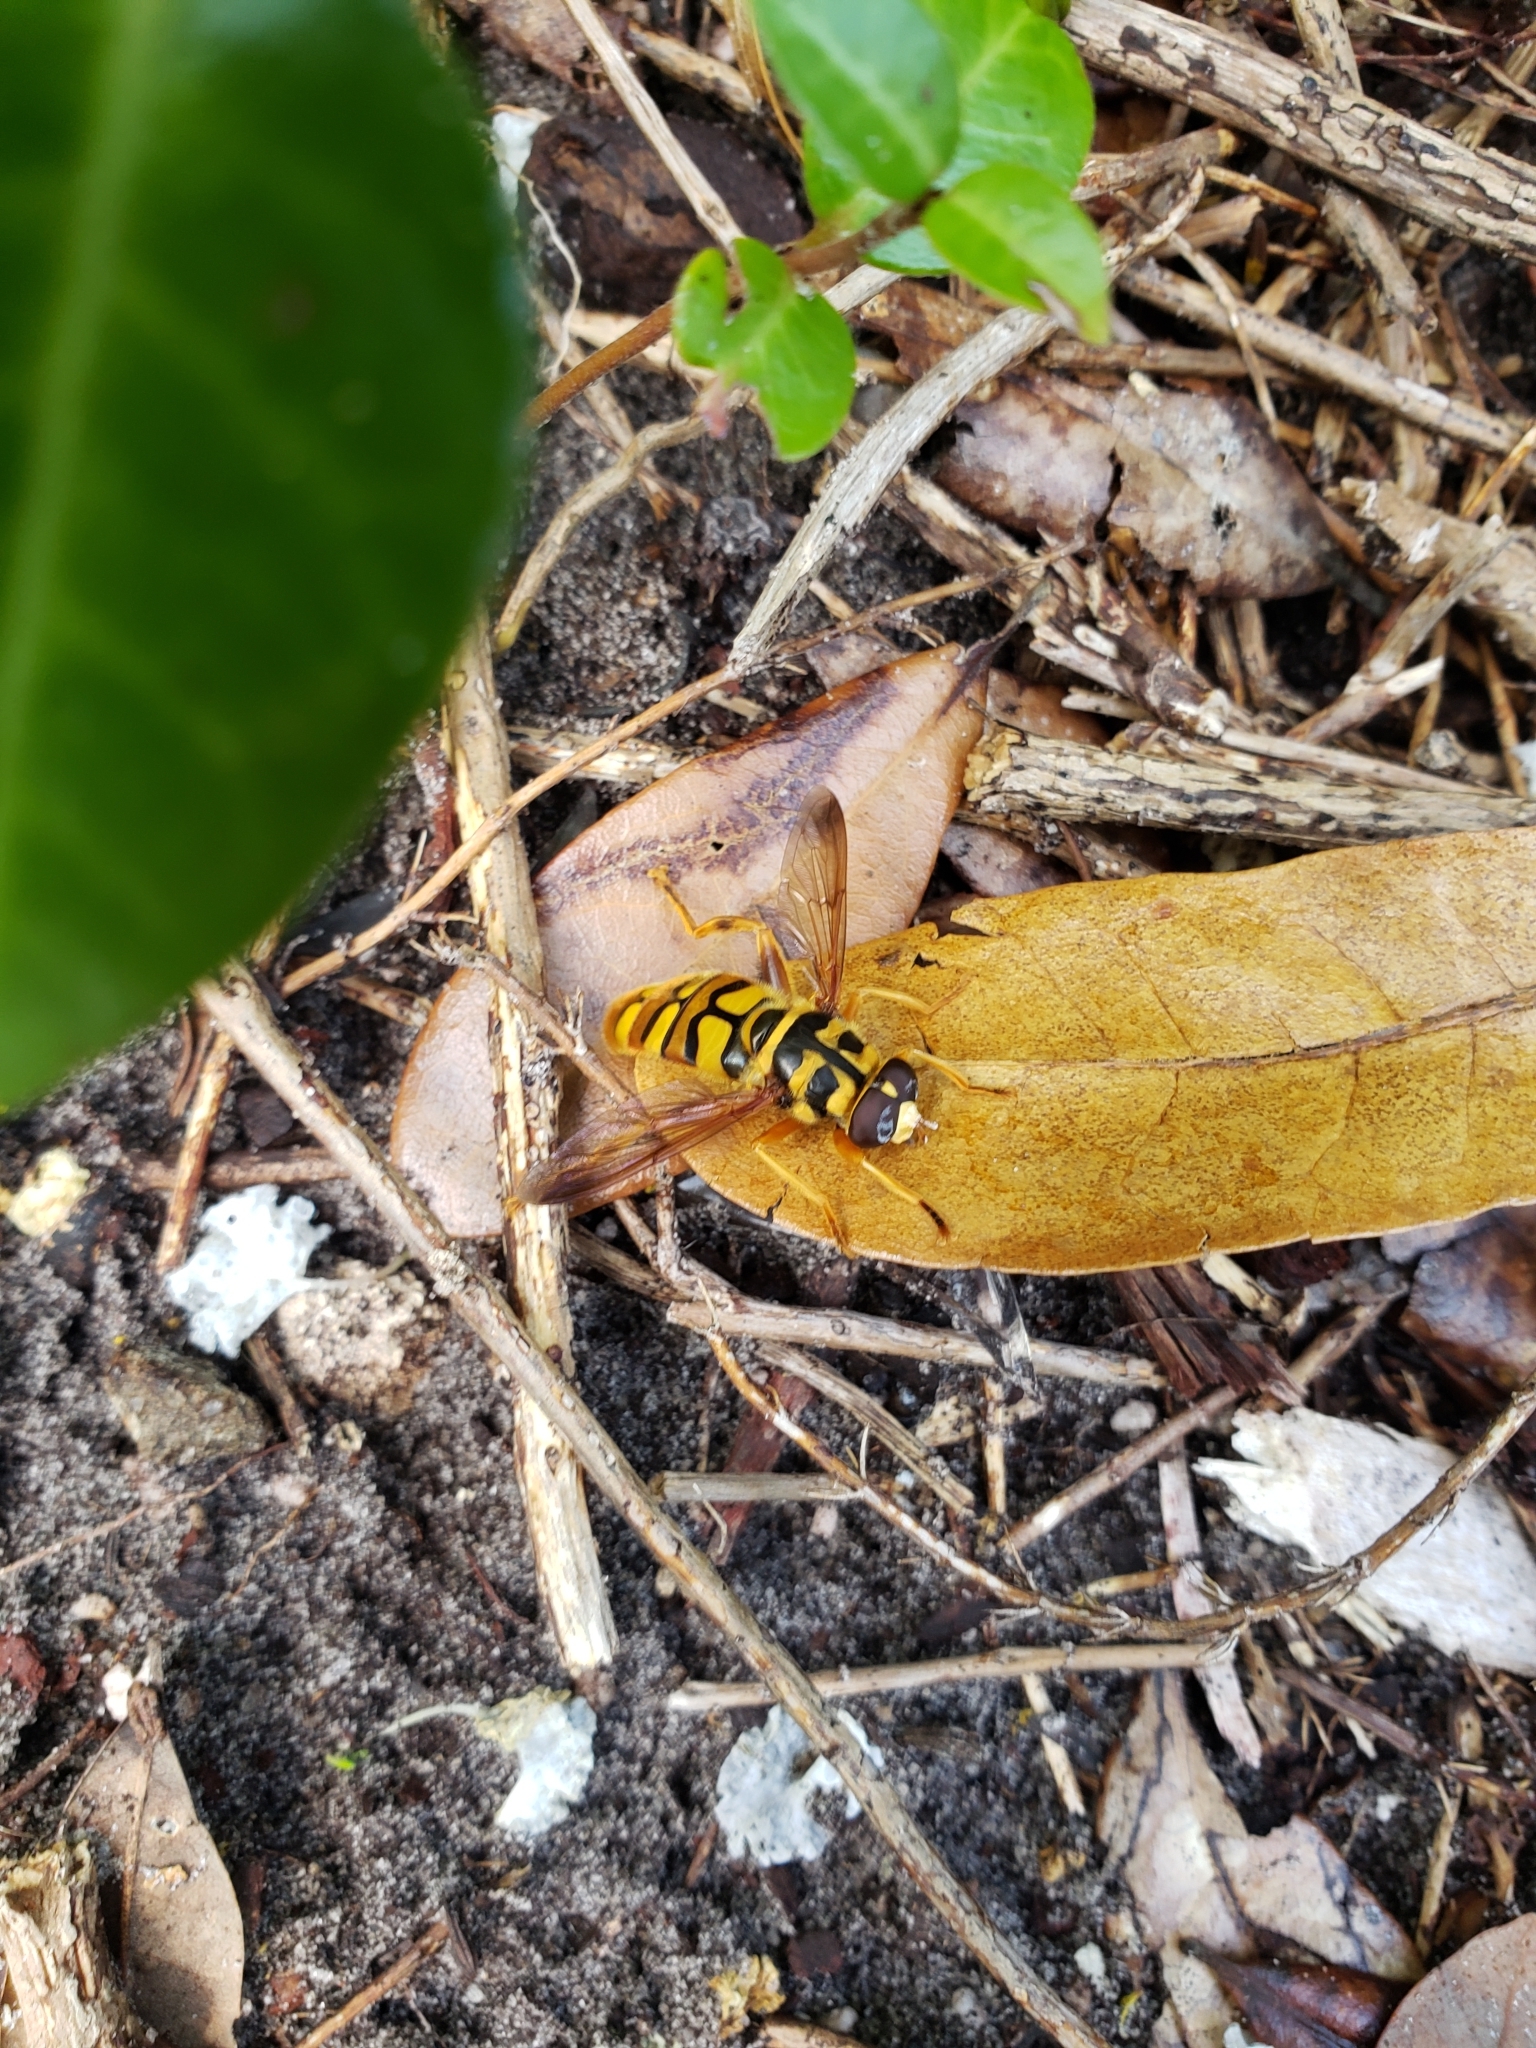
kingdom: Animalia
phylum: Arthropoda
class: Insecta
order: Diptera
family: Syrphidae
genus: Milesia
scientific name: Milesia virginiensis
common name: Virginia giant
